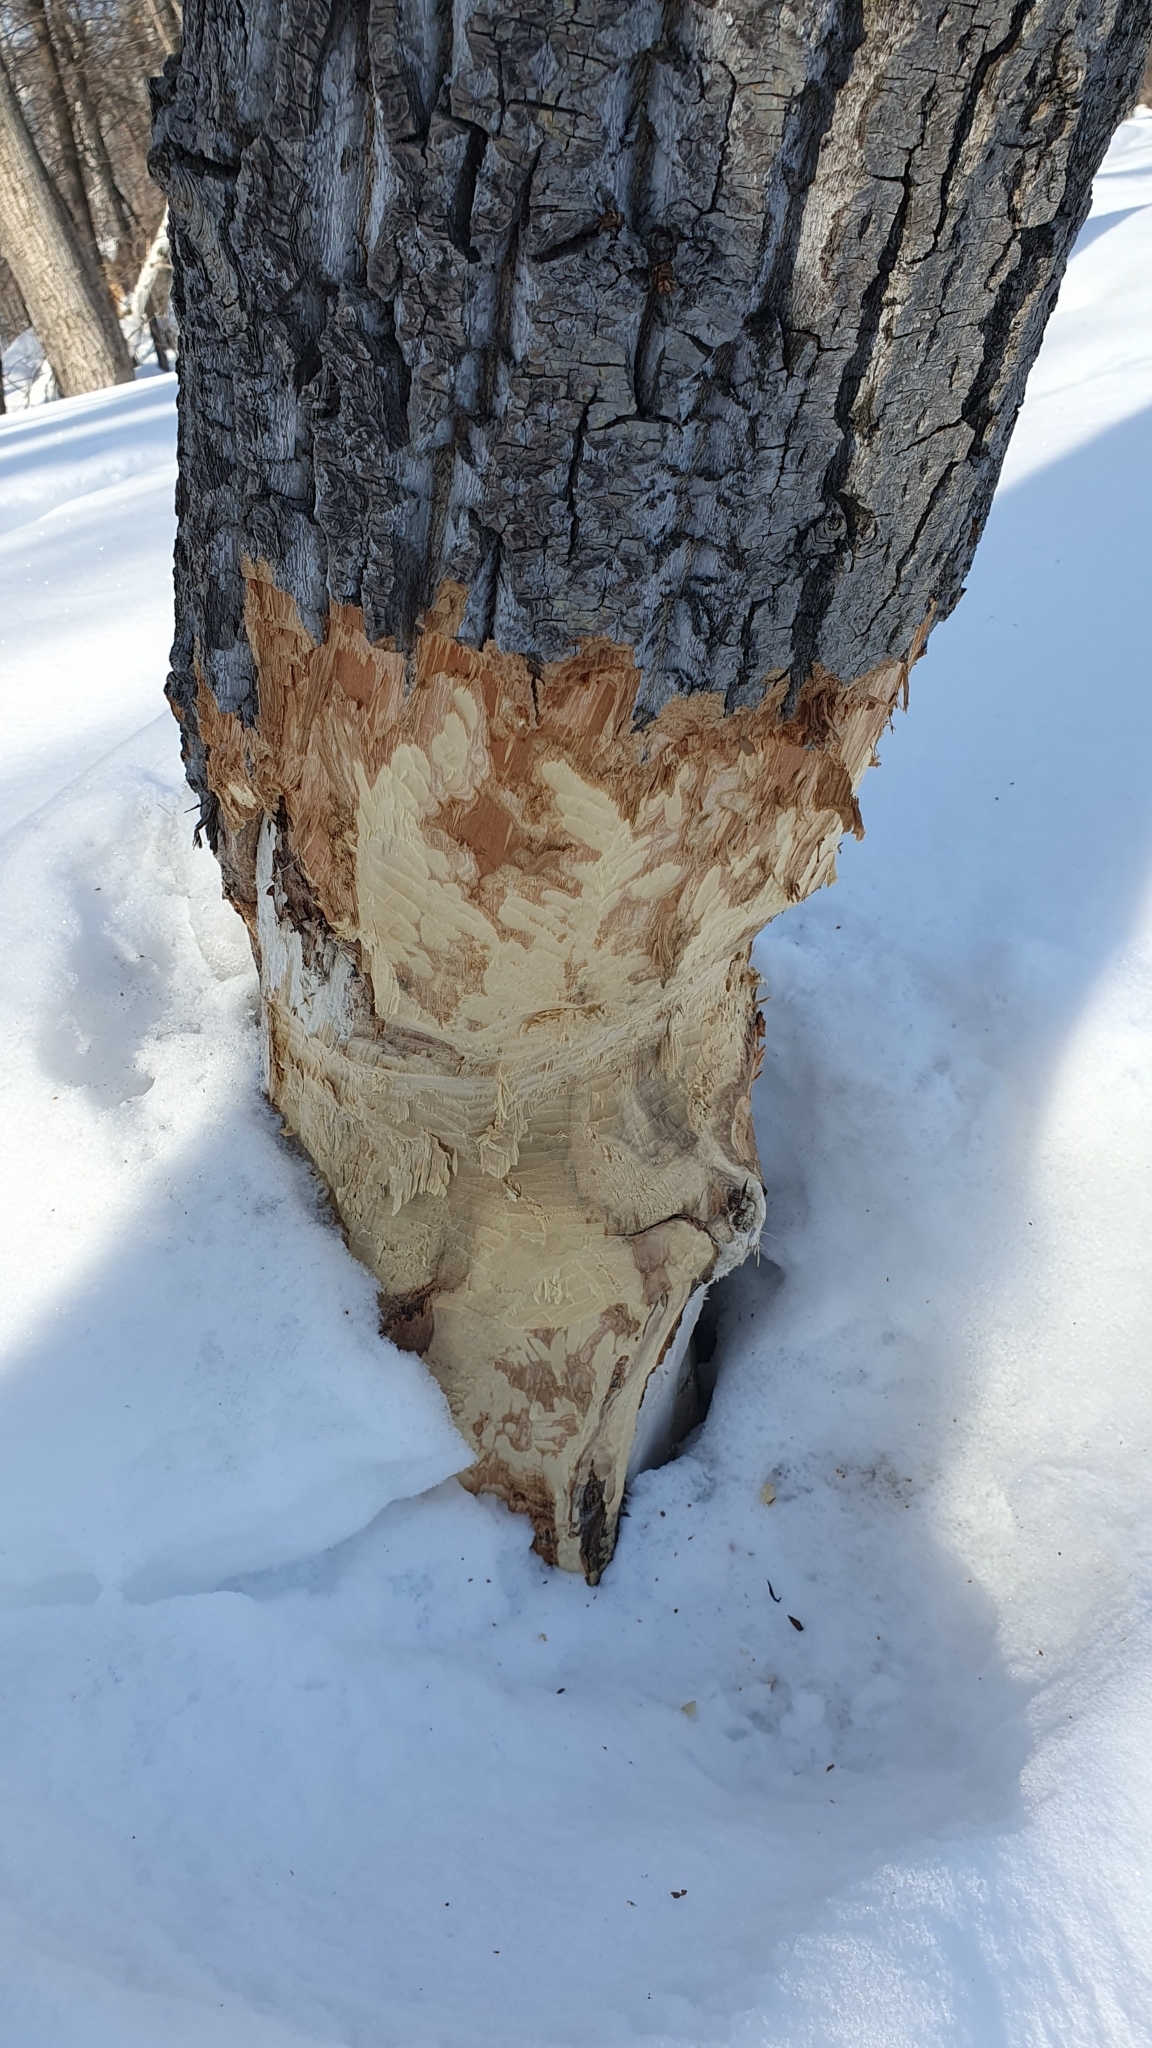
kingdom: Animalia
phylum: Chordata
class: Mammalia
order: Rodentia
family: Castoridae
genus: Castor
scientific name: Castor fiber
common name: Eurasian beaver
